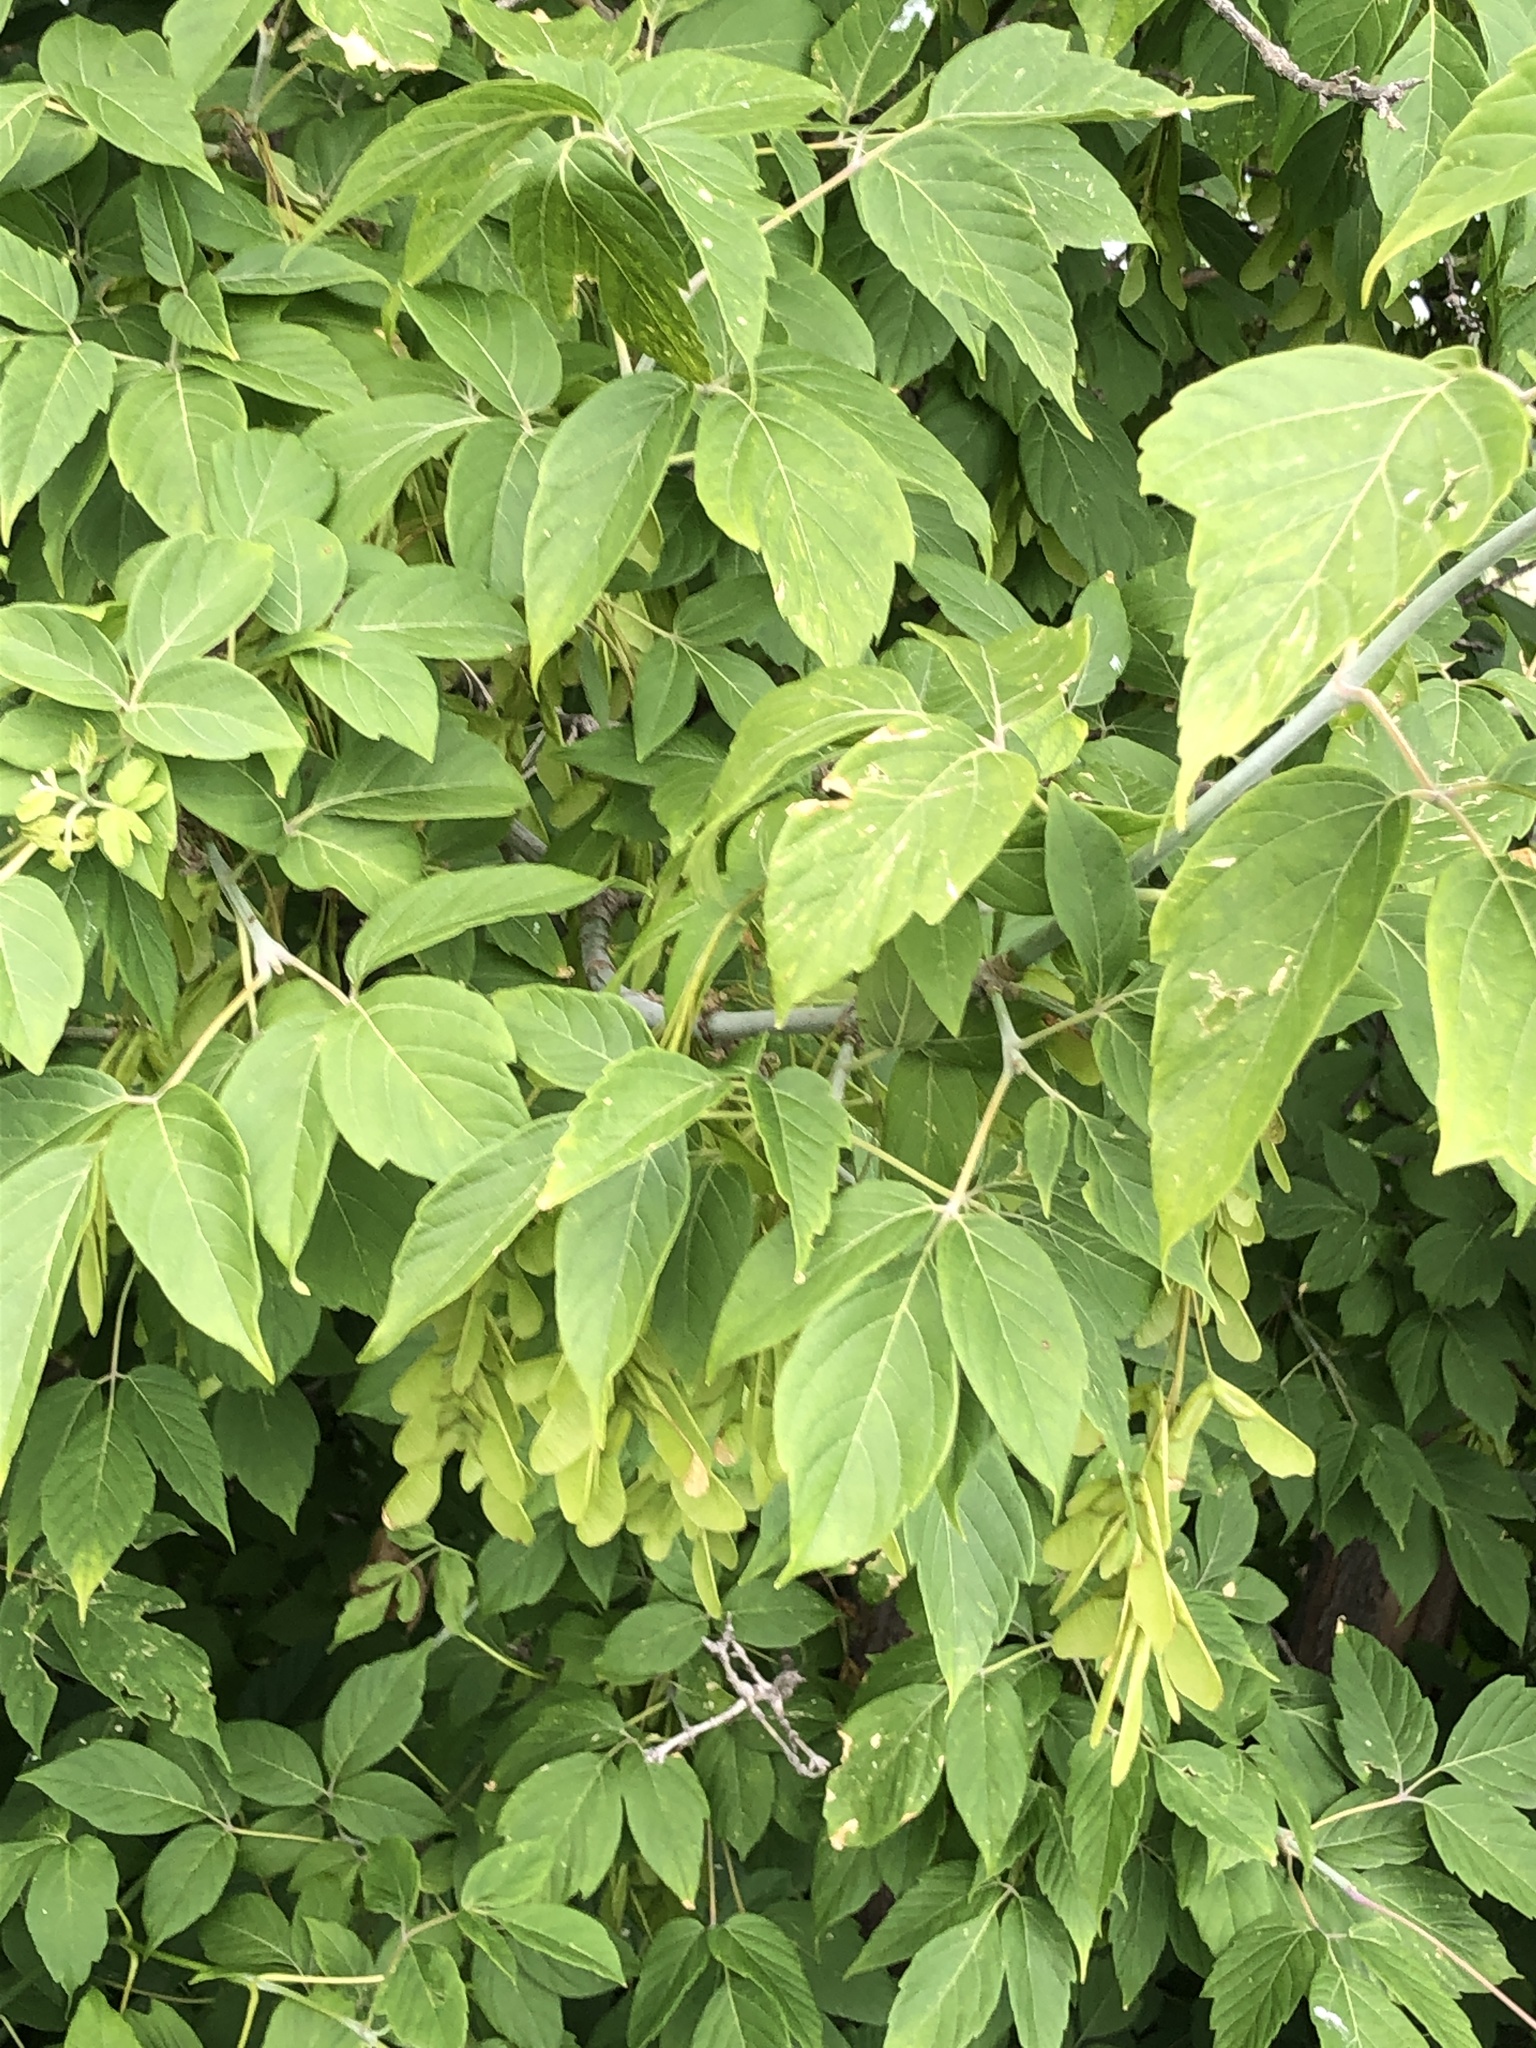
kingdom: Plantae
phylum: Tracheophyta
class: Magnoliopsida
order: Sapindales
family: Sapindaceae
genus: Acer
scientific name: Acer negundo
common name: Ashleaf maple
